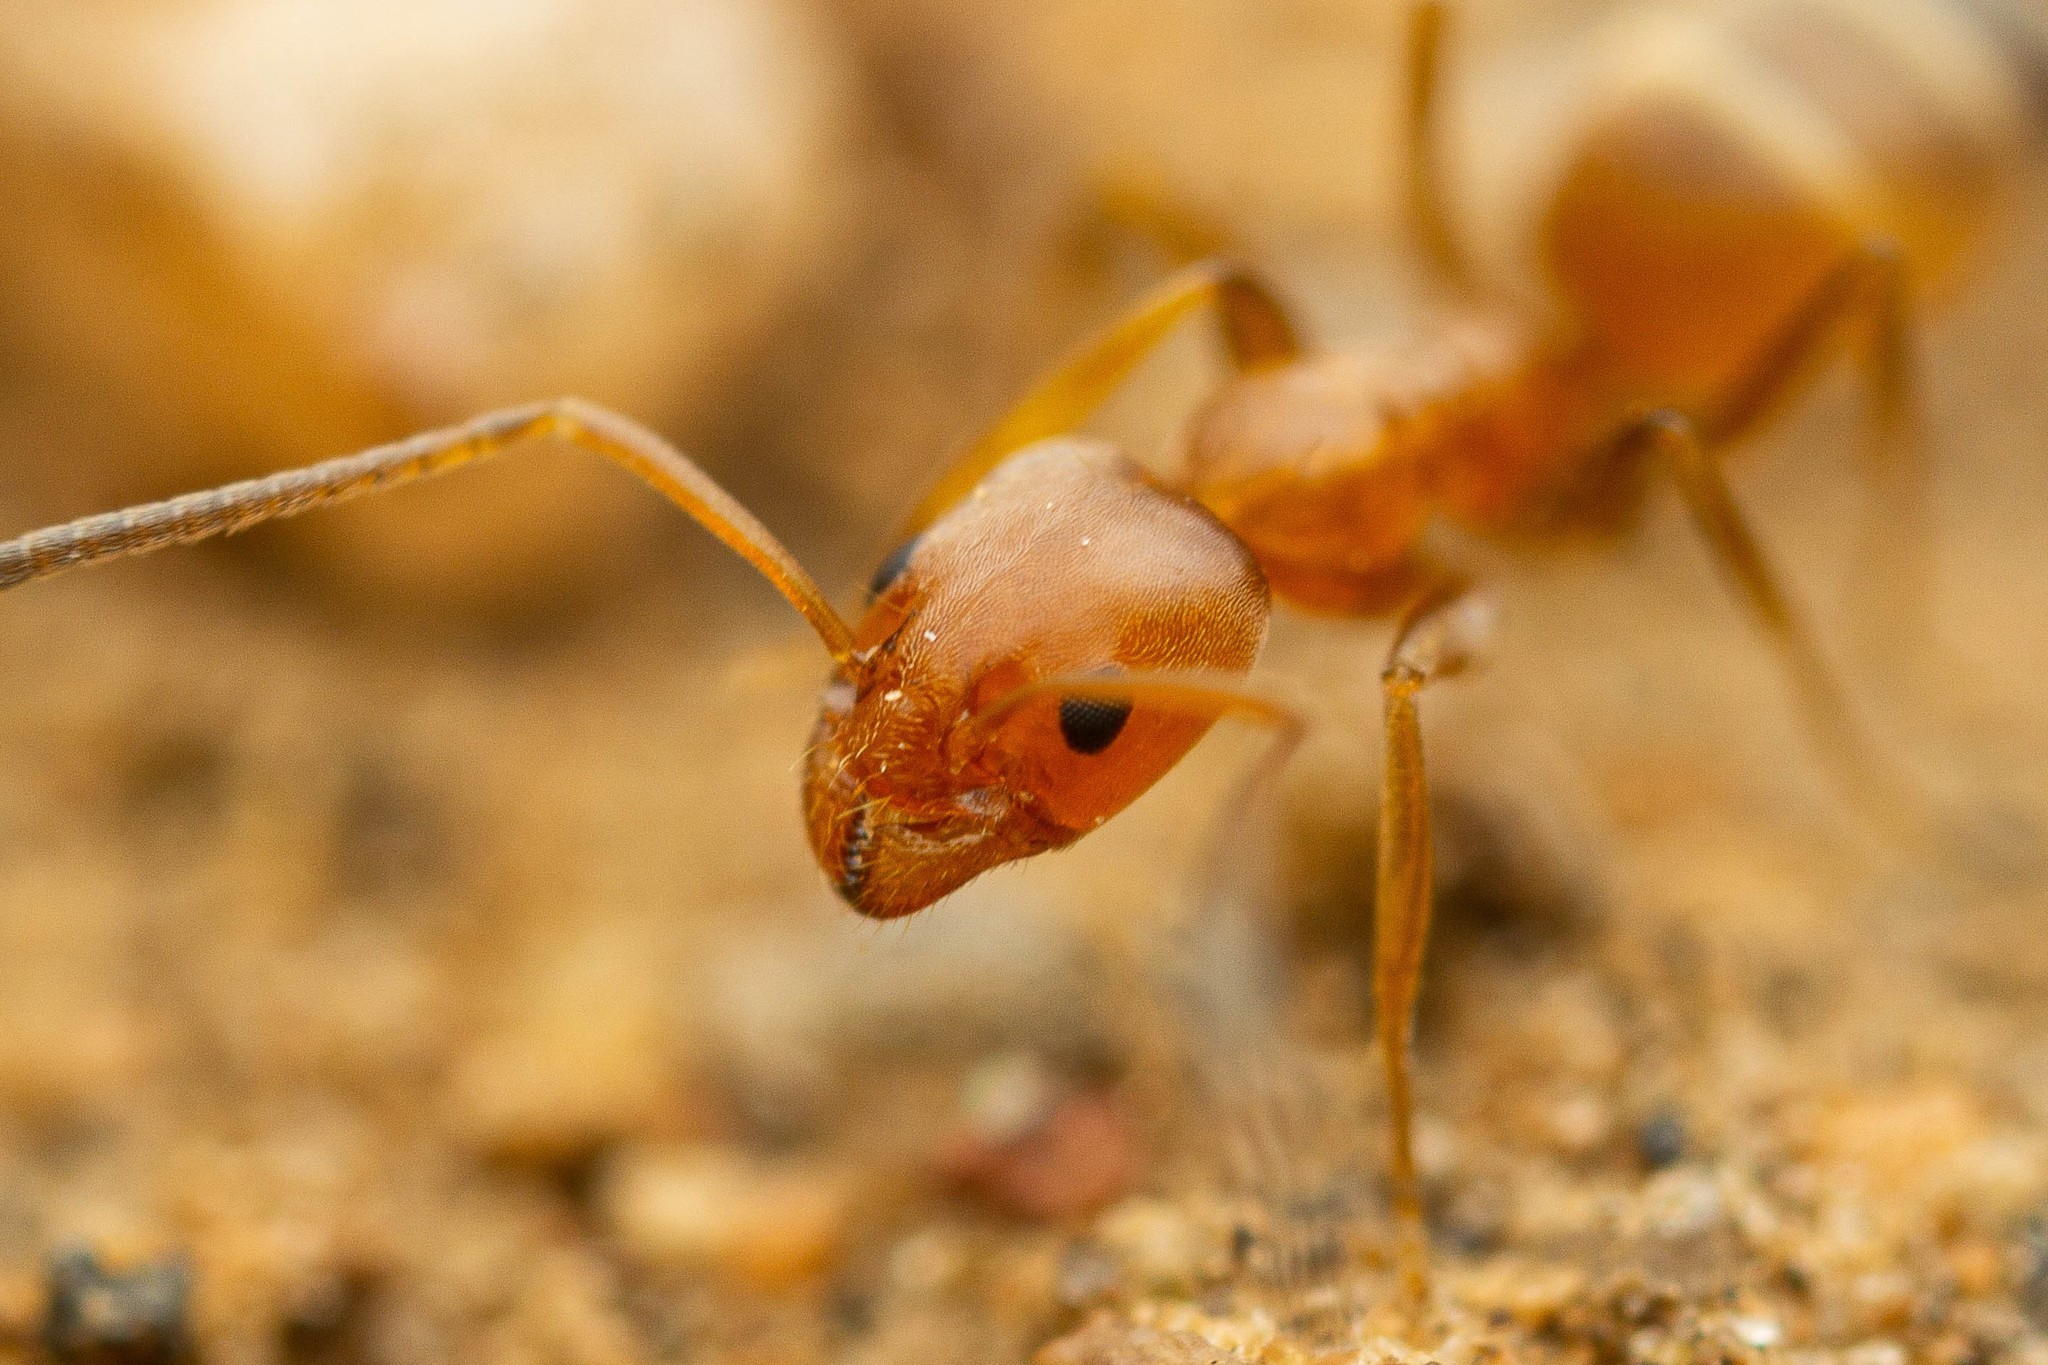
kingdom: Animalia
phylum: Arthropoda
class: Insecta
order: Hymenoptera
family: Formicidae
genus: Forelius
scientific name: Forelius pruinosus
